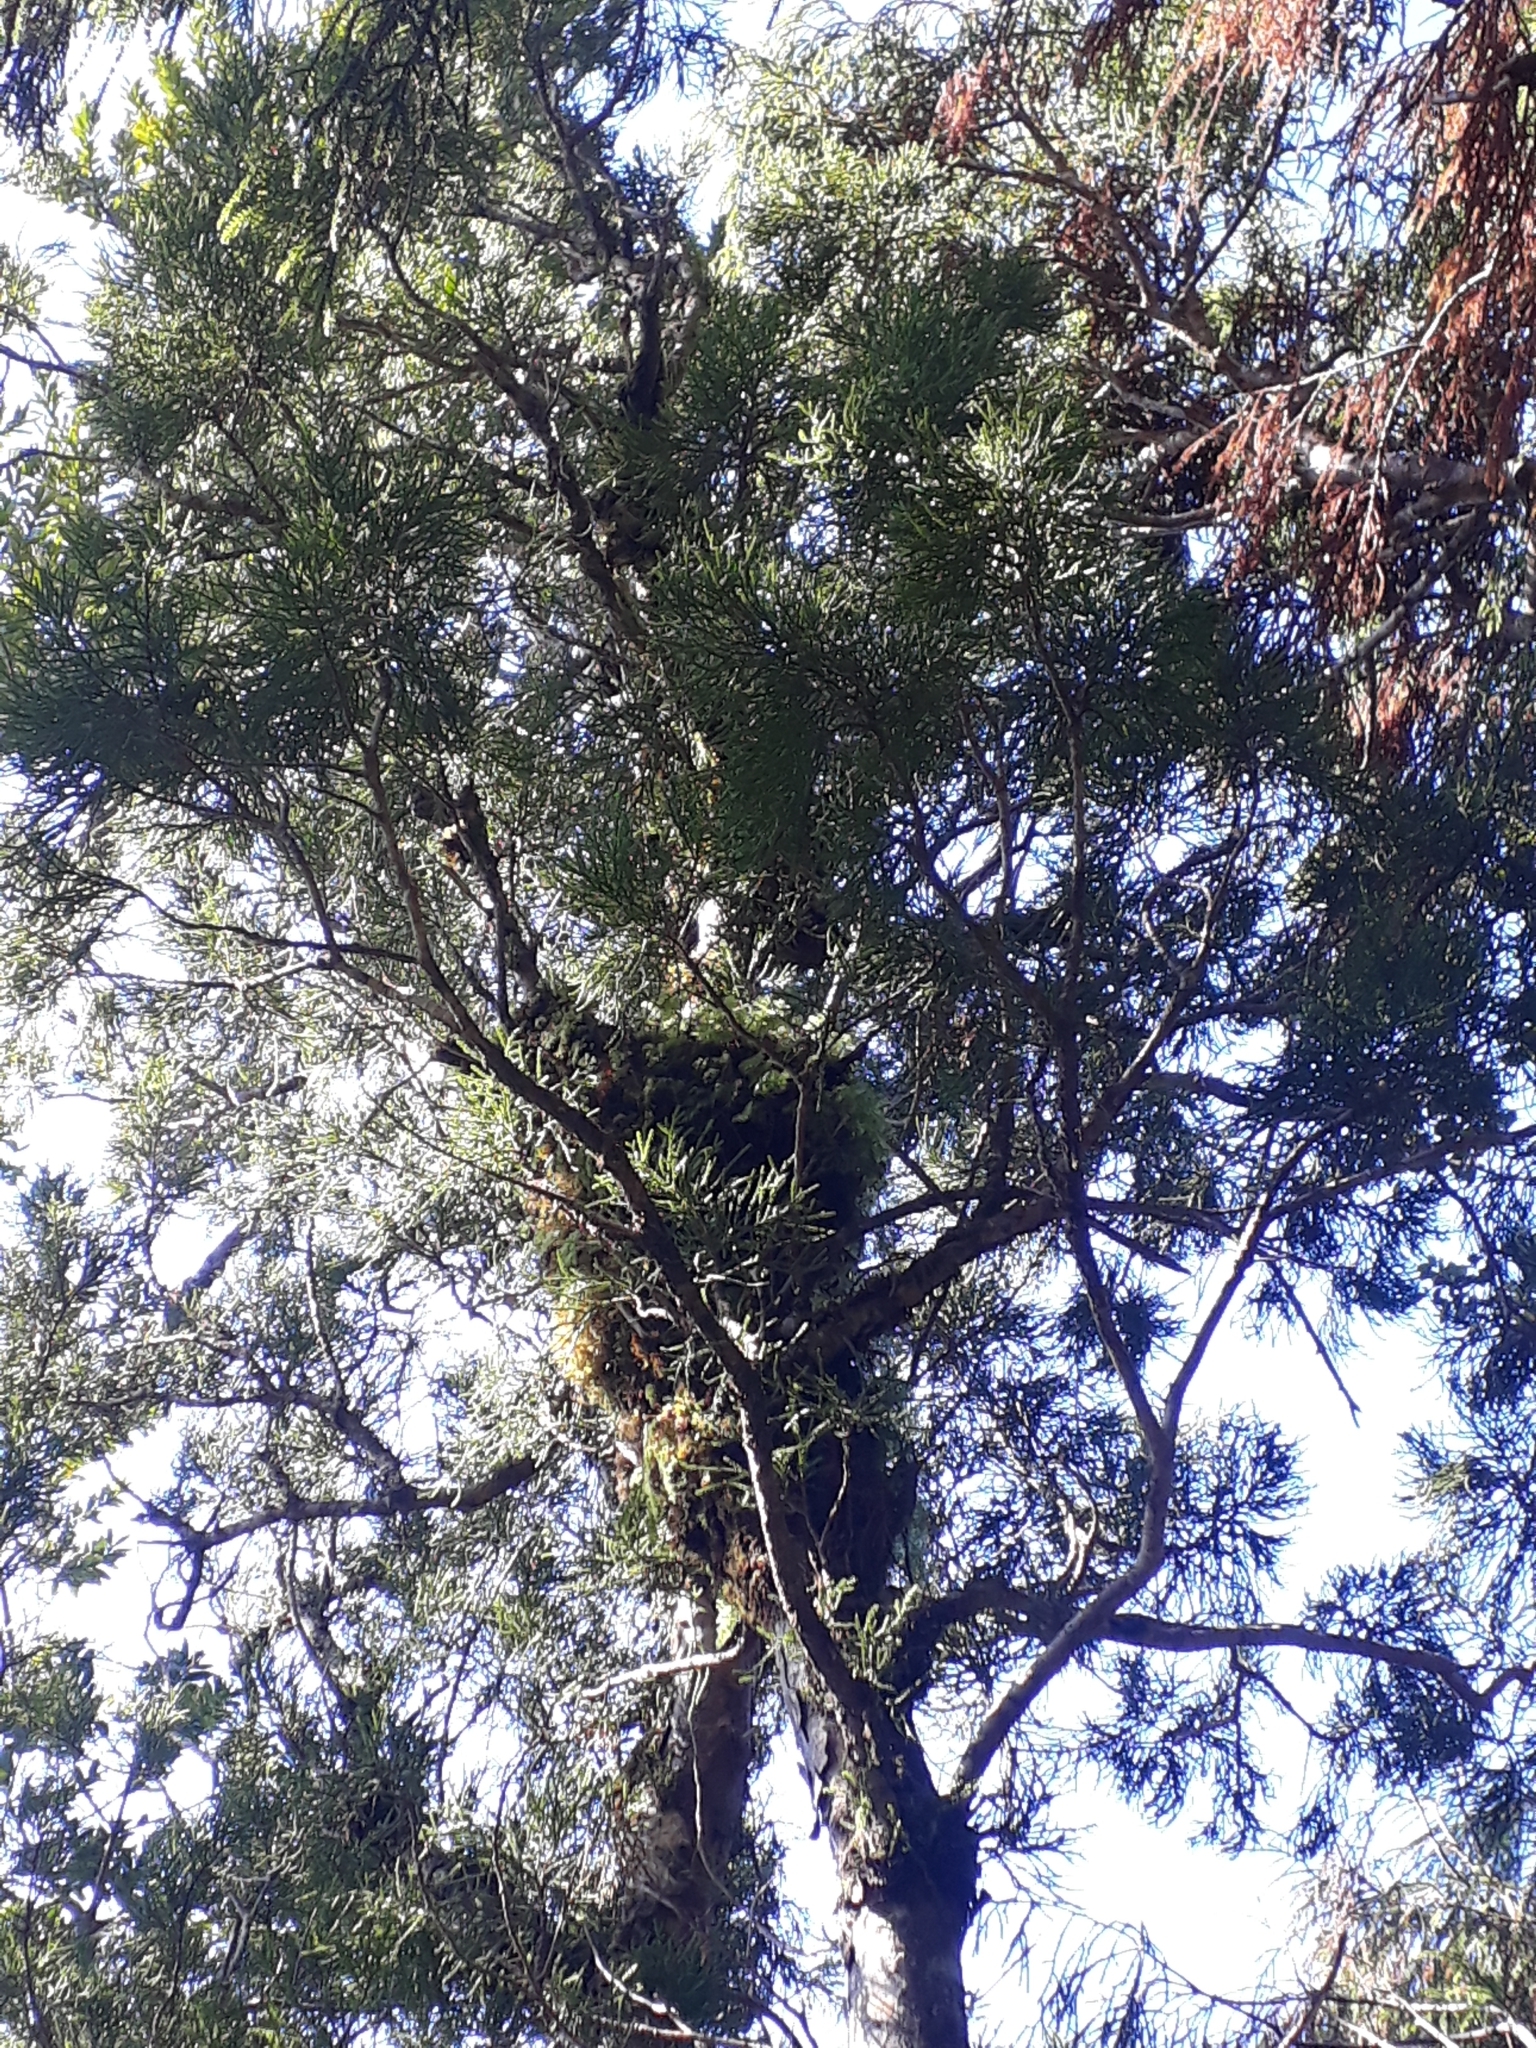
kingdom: Plantae
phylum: Tracheophyta
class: Pinopsida
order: Pinales
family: Podocarpaceae
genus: Lepidothamnus
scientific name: Lepidothamnus intermedius
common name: Yellow silver pine
